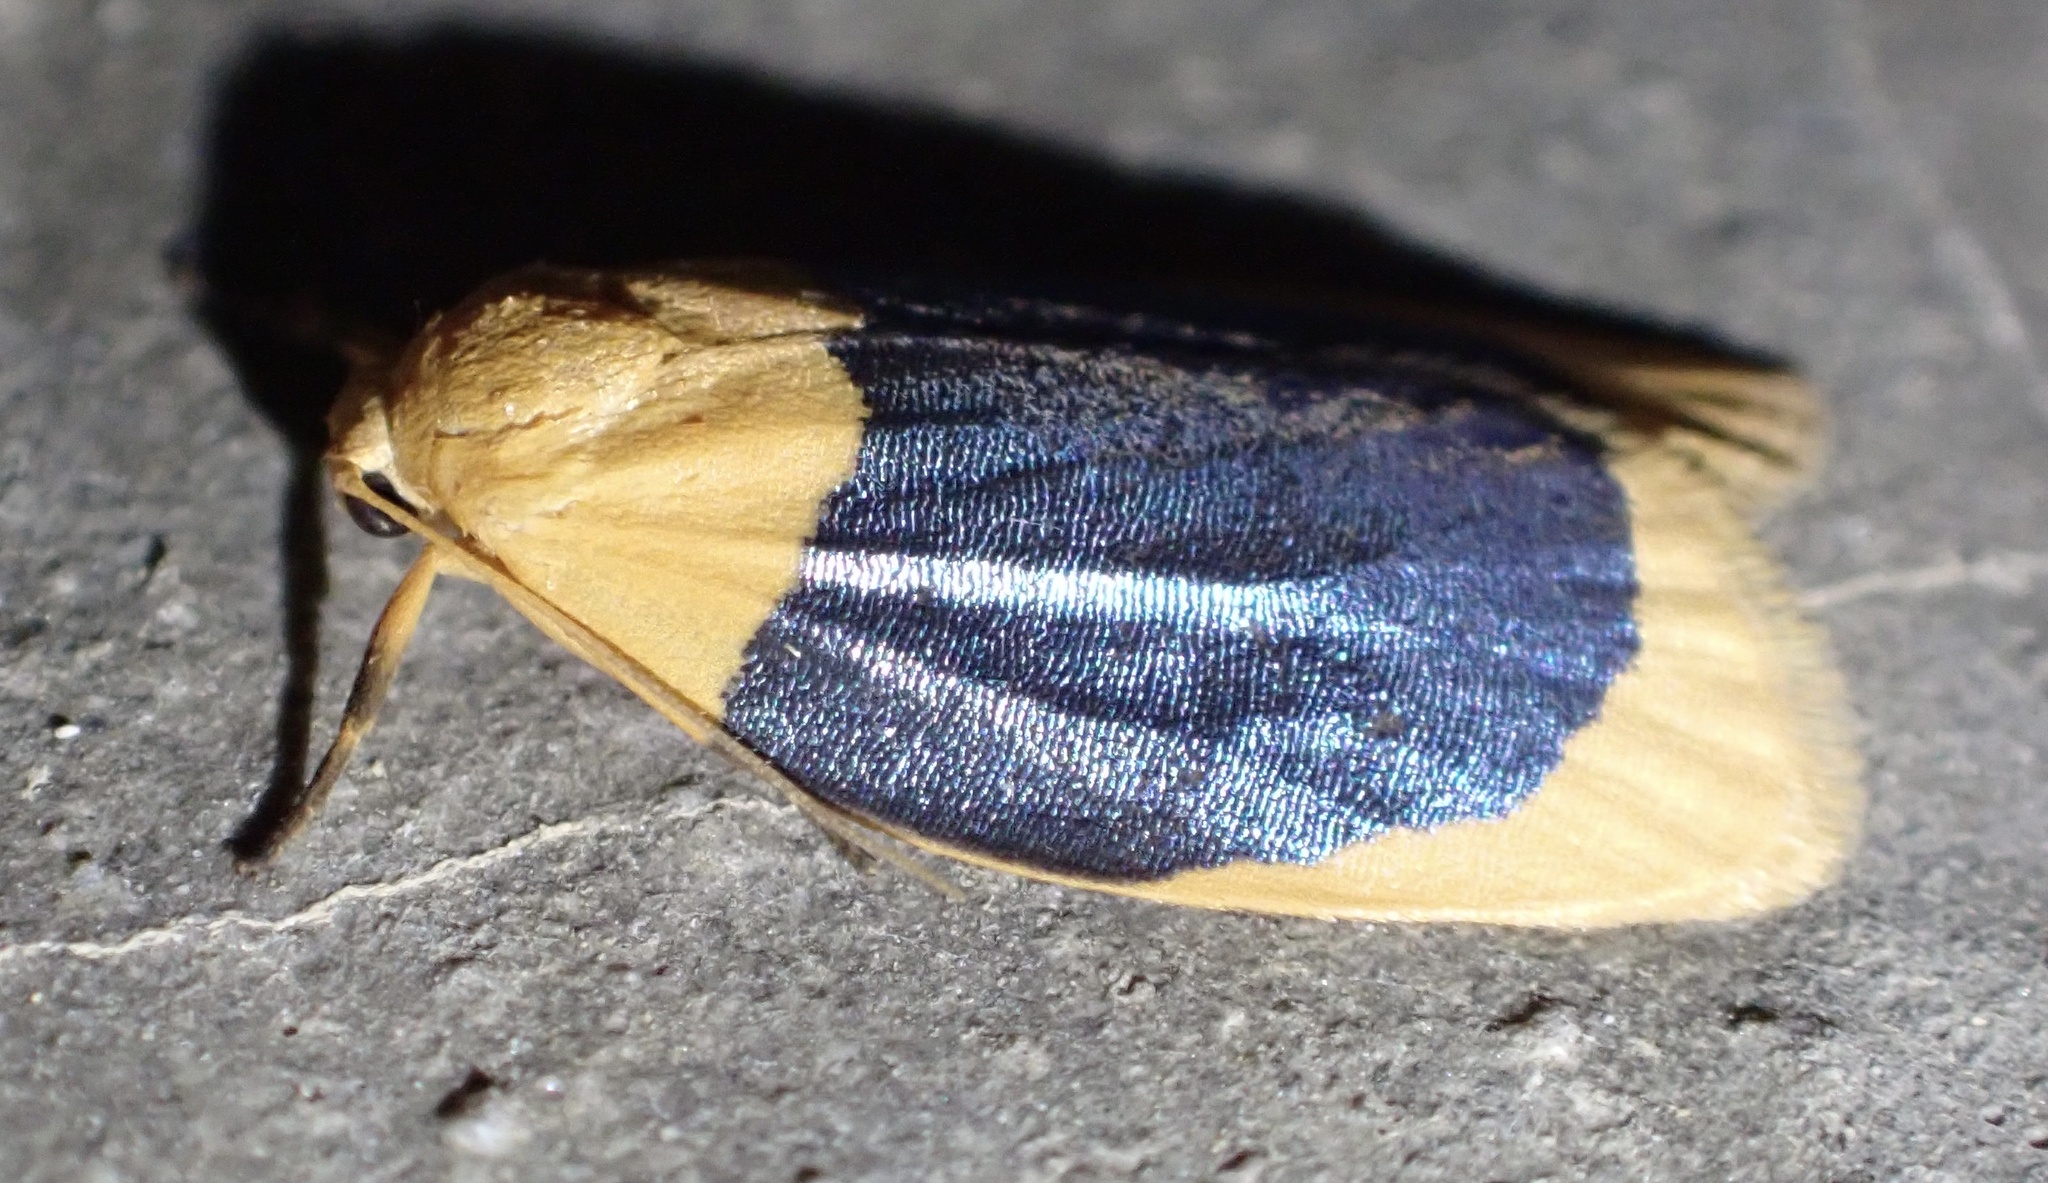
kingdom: Animalia
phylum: Arthropoda
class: Insecta
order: Lepidoptera
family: Erebidae
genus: Darantasia
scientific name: Darantasia cyanifera
